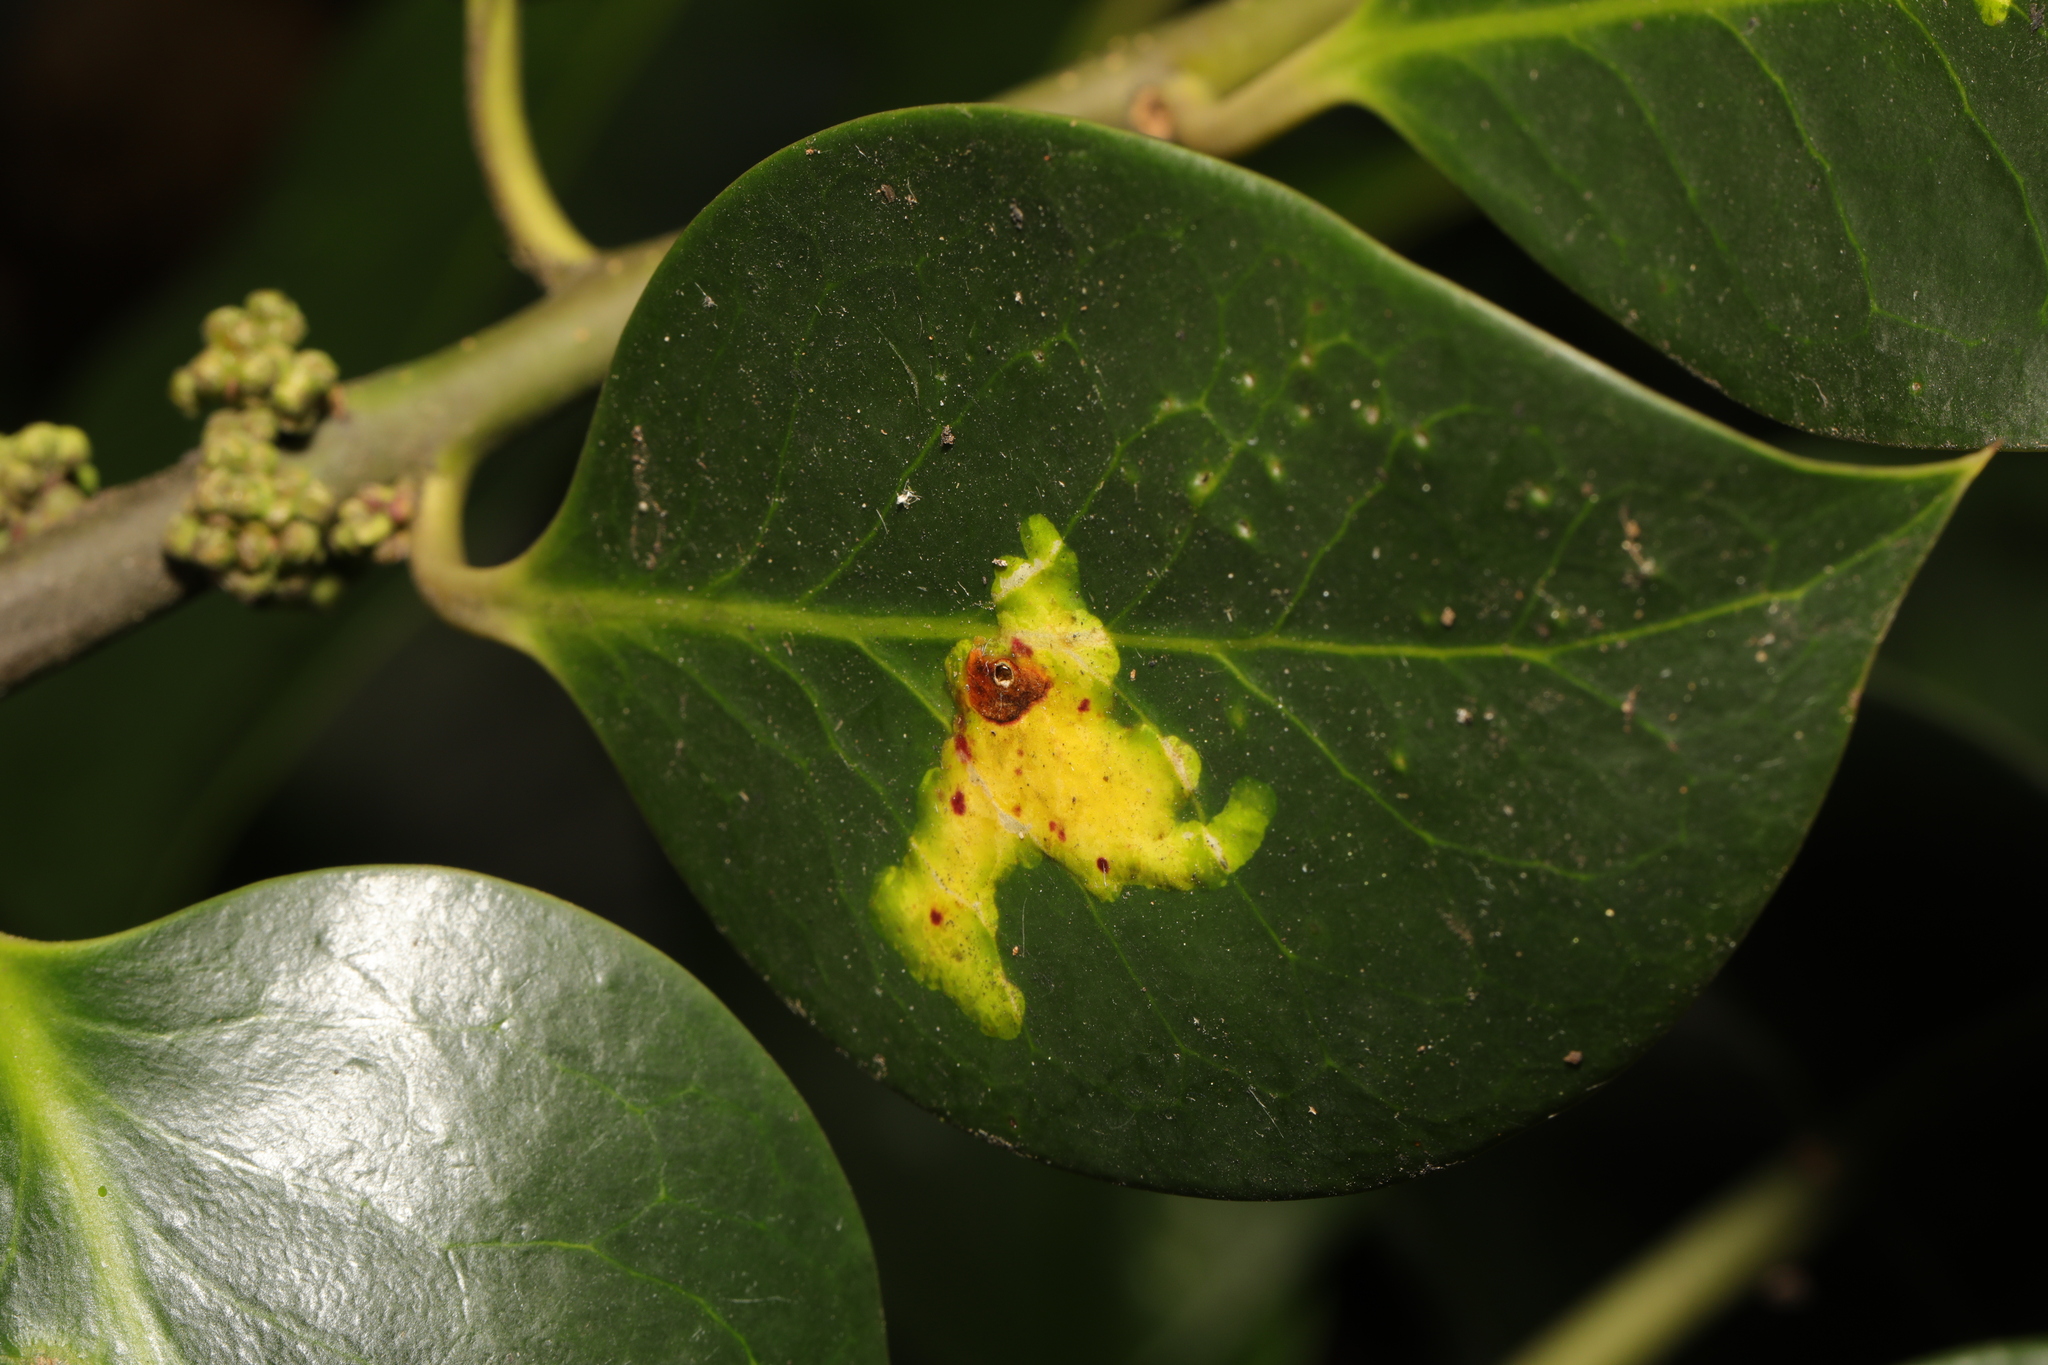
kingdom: Animalia
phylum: Arthropoda
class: Insecta
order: Diptera
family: Agromyzidae
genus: Phytomyza
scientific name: Phytomyza ilicis
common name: Holly leafminer
